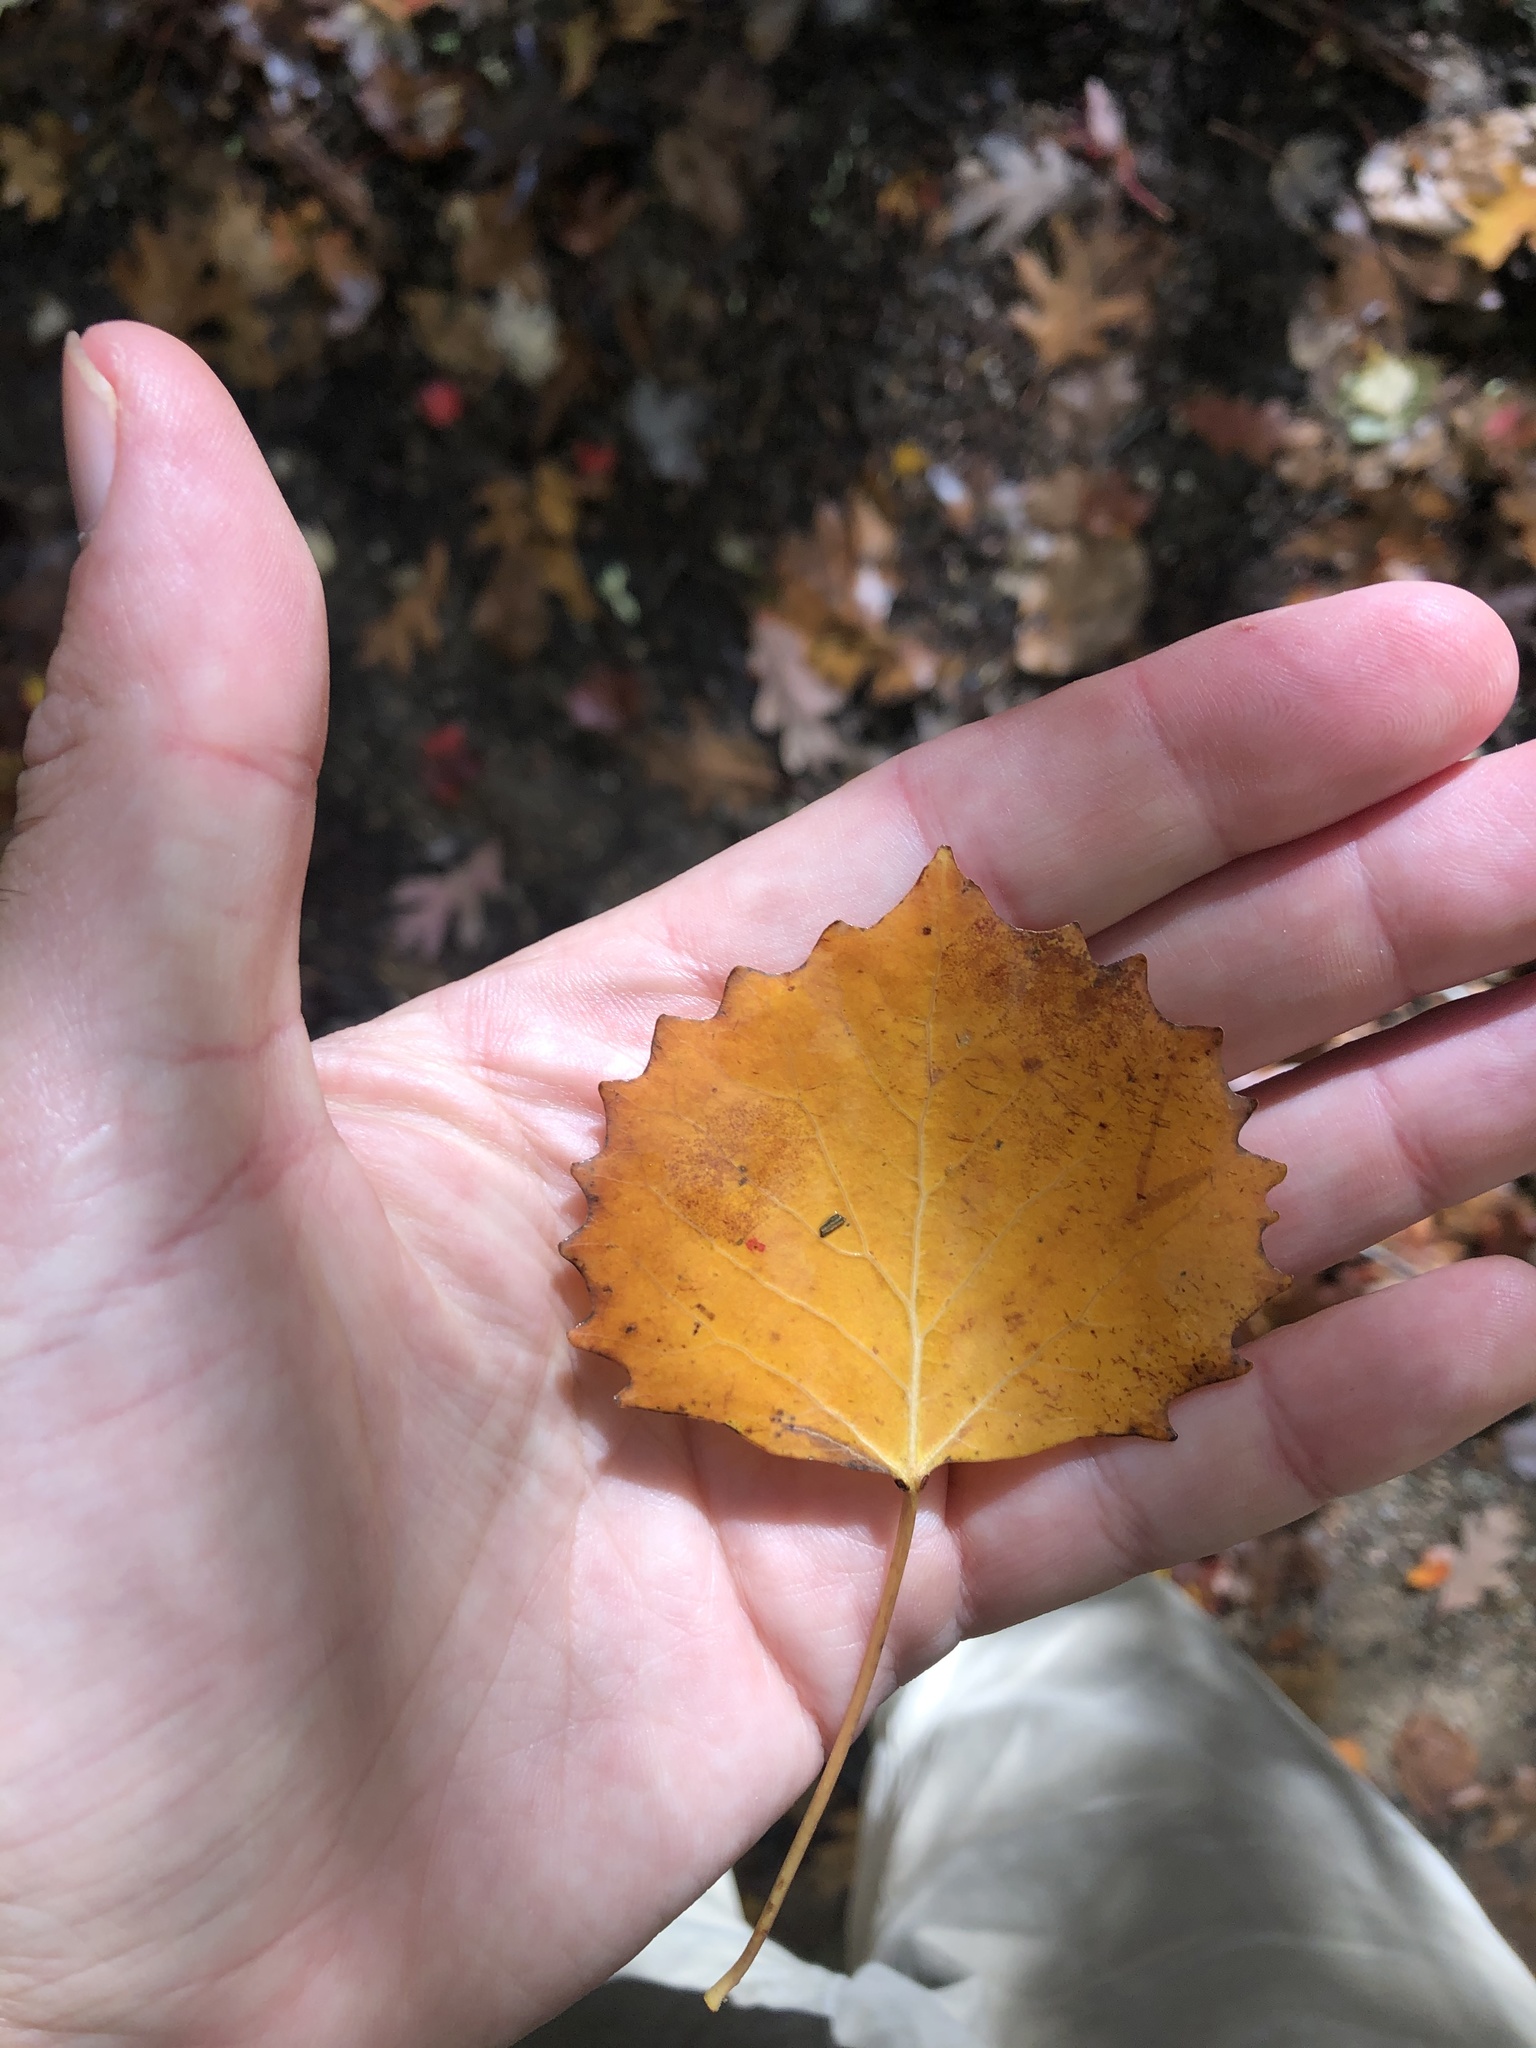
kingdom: Plantae
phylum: Tracheophyta
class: Magnoliopsida
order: Malpighiales
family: Salicaceae
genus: Populus
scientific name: Populus grandidentata
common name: Bigtooth aspen
